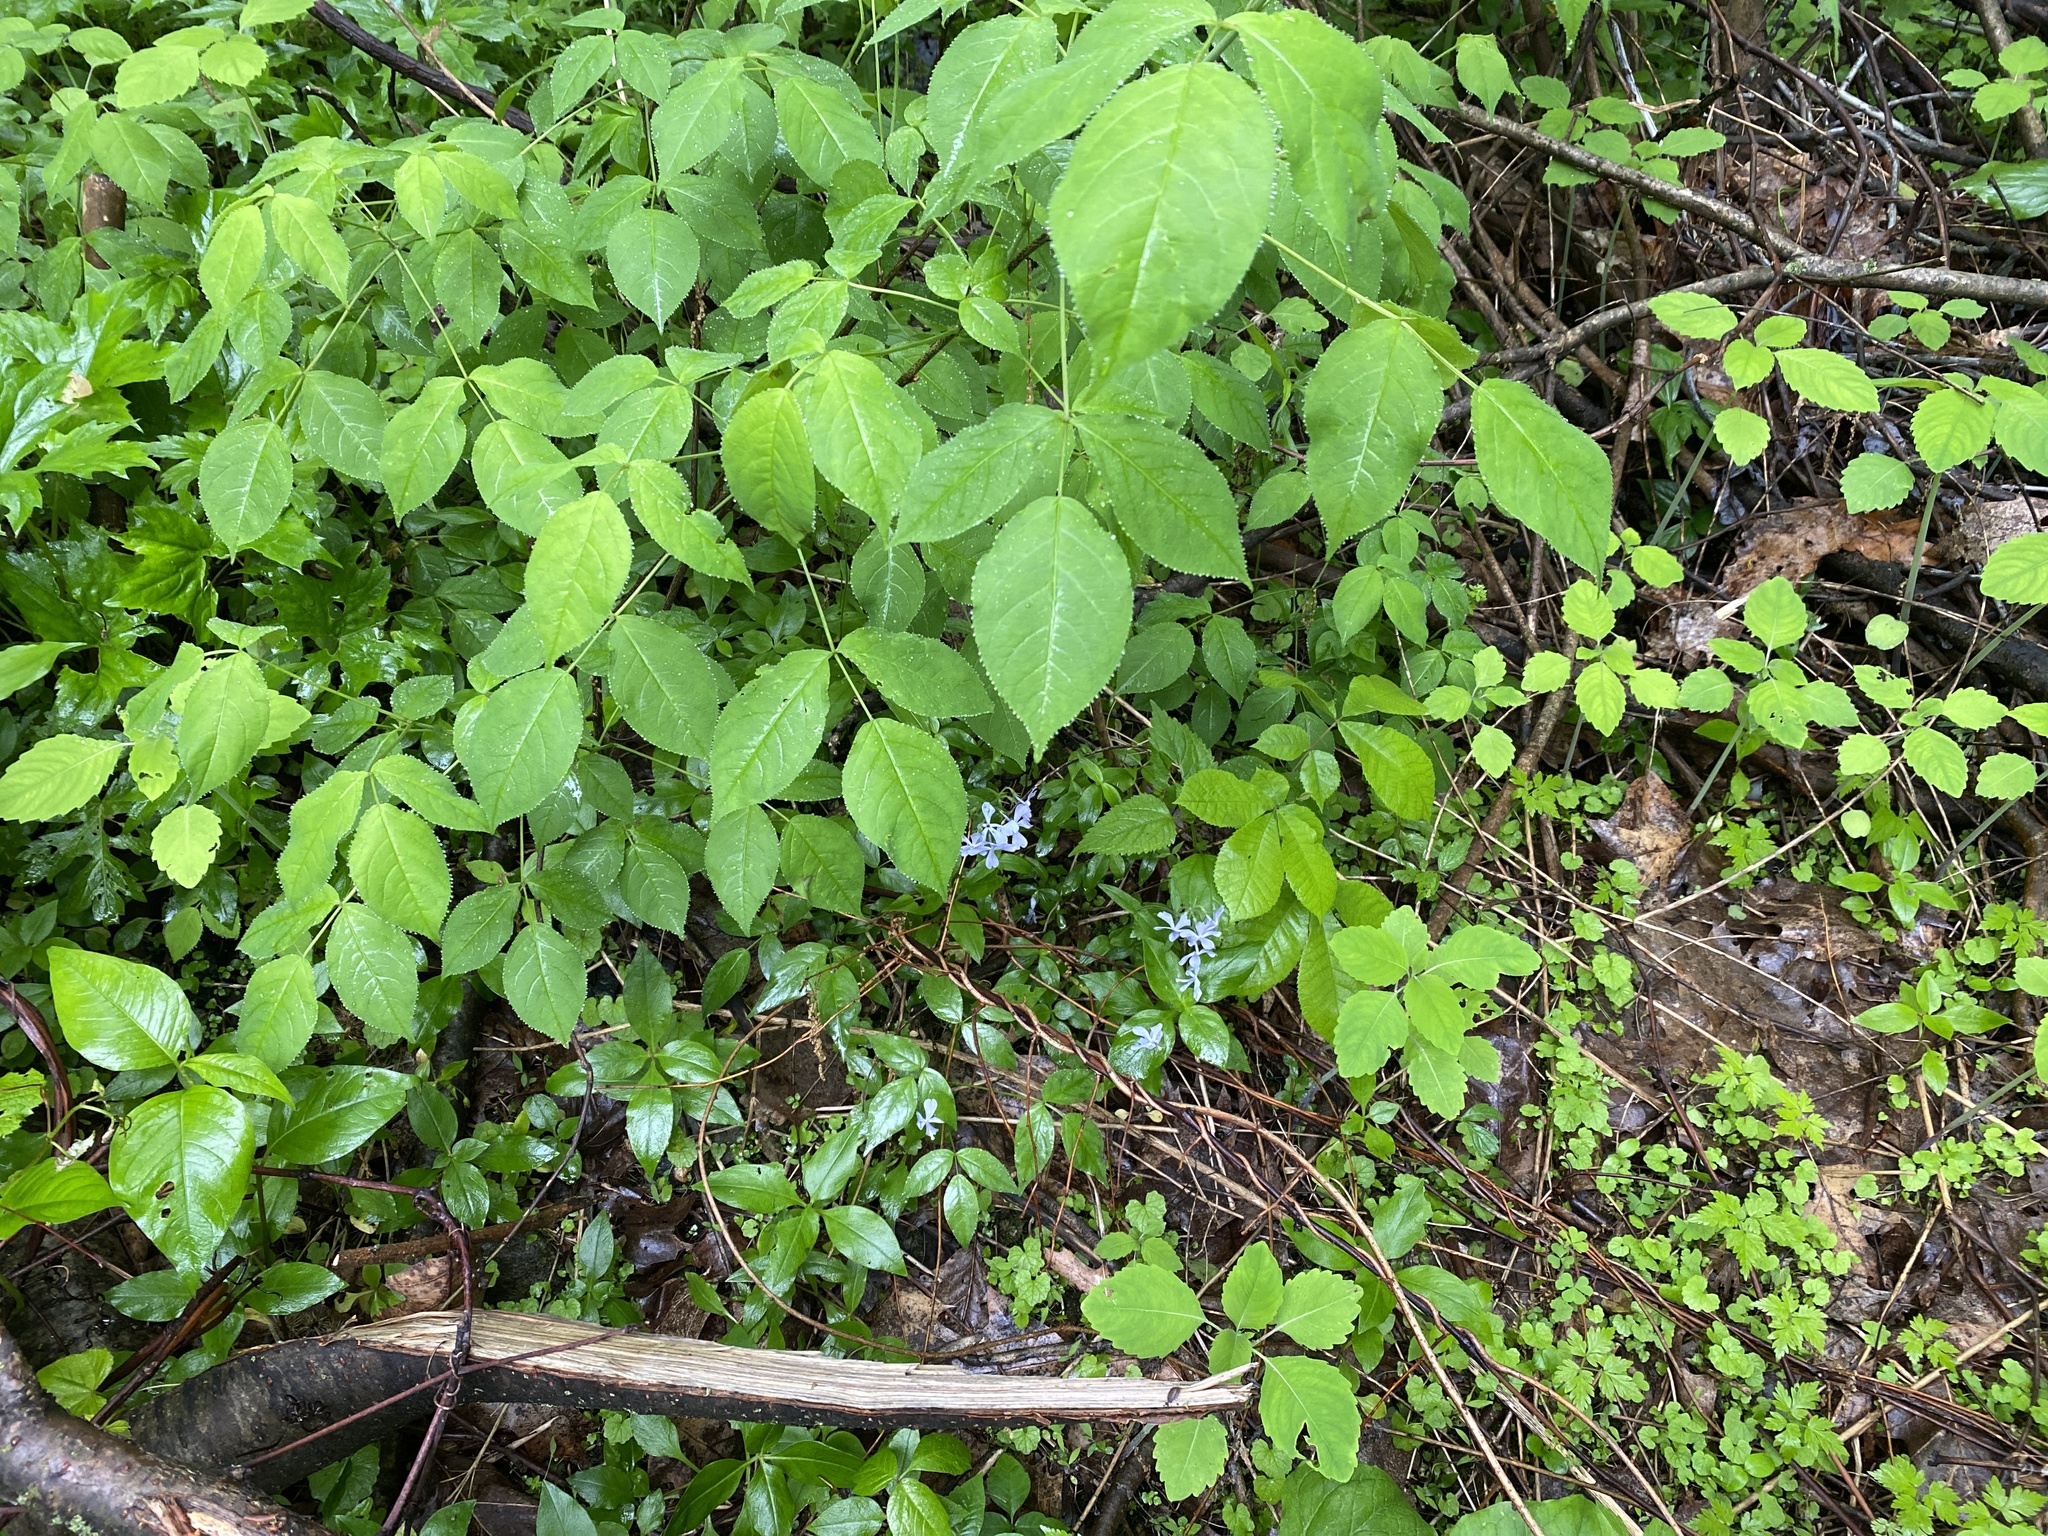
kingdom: Plantae
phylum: Tracheophyta
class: Magnoliopsida
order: Ericales
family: Polemoniaceae
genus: Phlox
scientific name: Phlox divaricata
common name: Blue phlox
